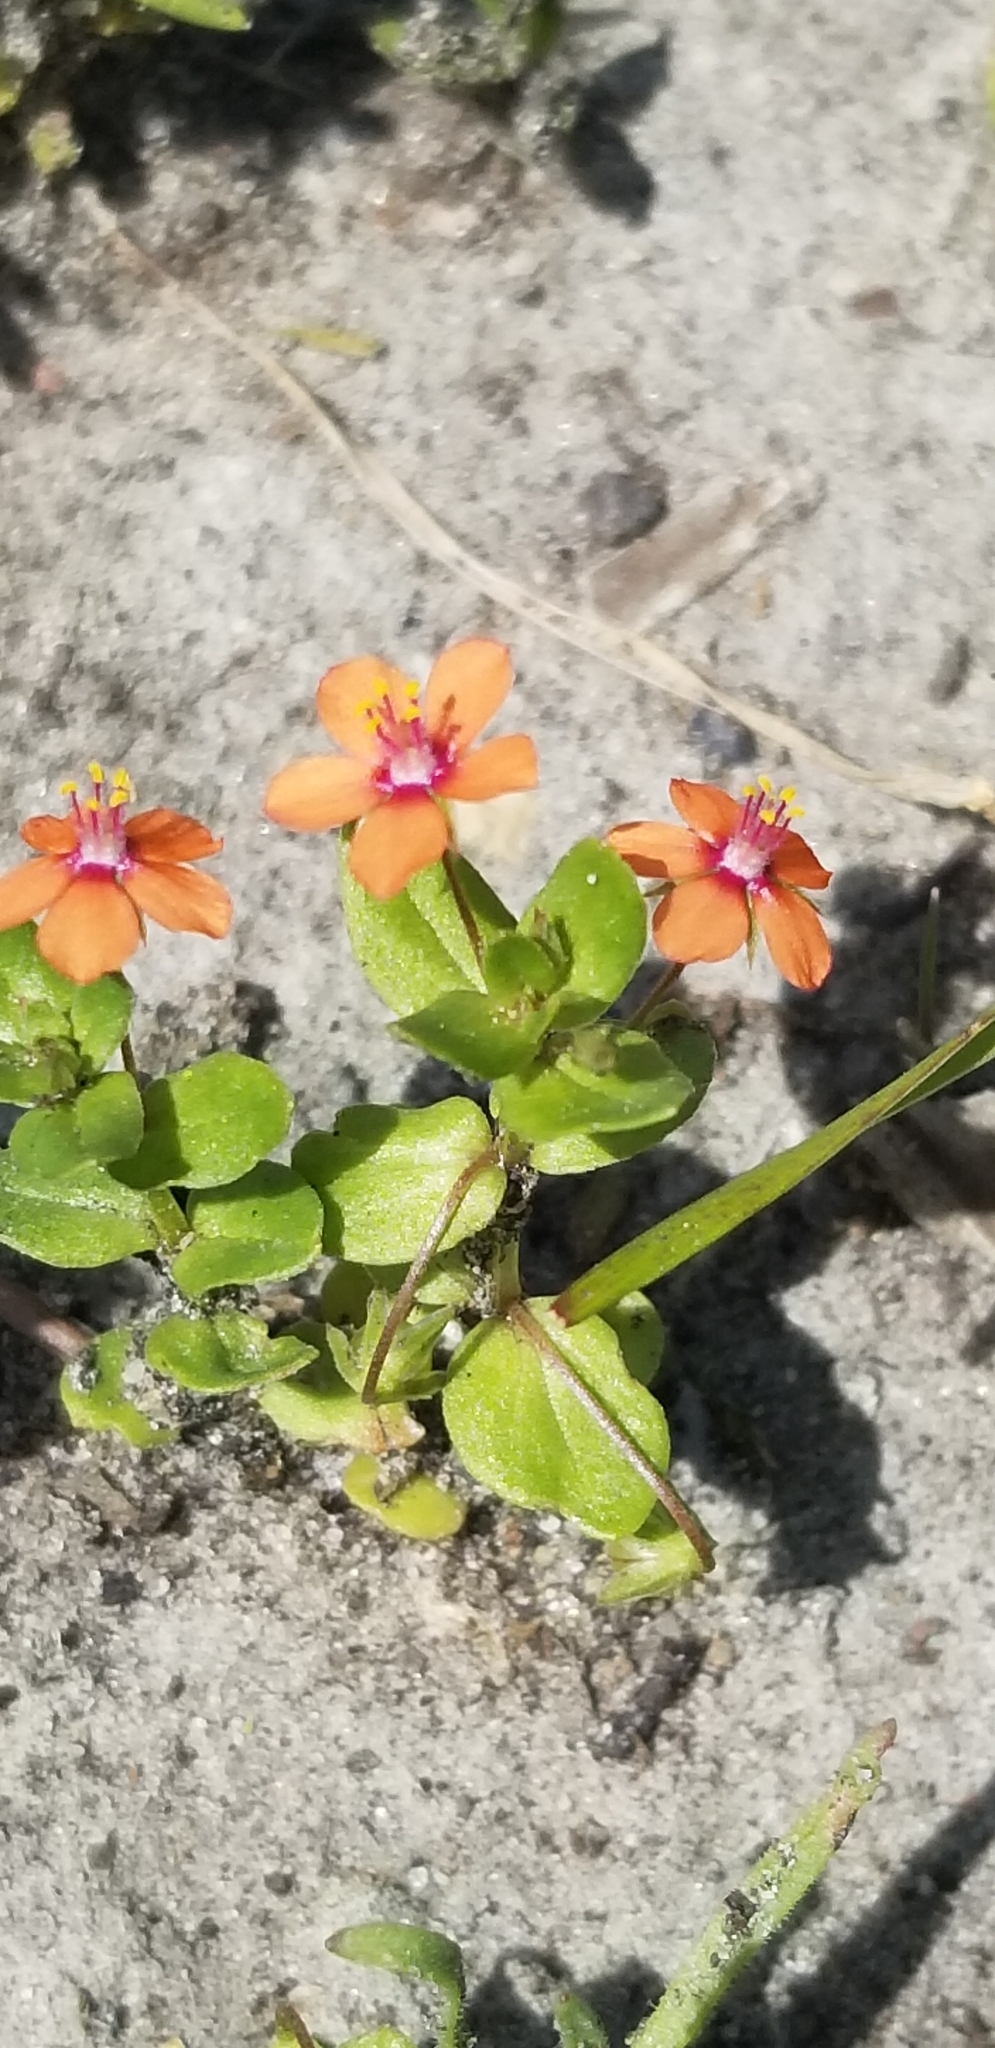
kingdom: Plantae
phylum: Tracheophyta
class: Magnoliopsida
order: Ericales
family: Primulaceae
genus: Lysimachia
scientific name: Lysimachia arvensis
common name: Scarlet pimpernel
